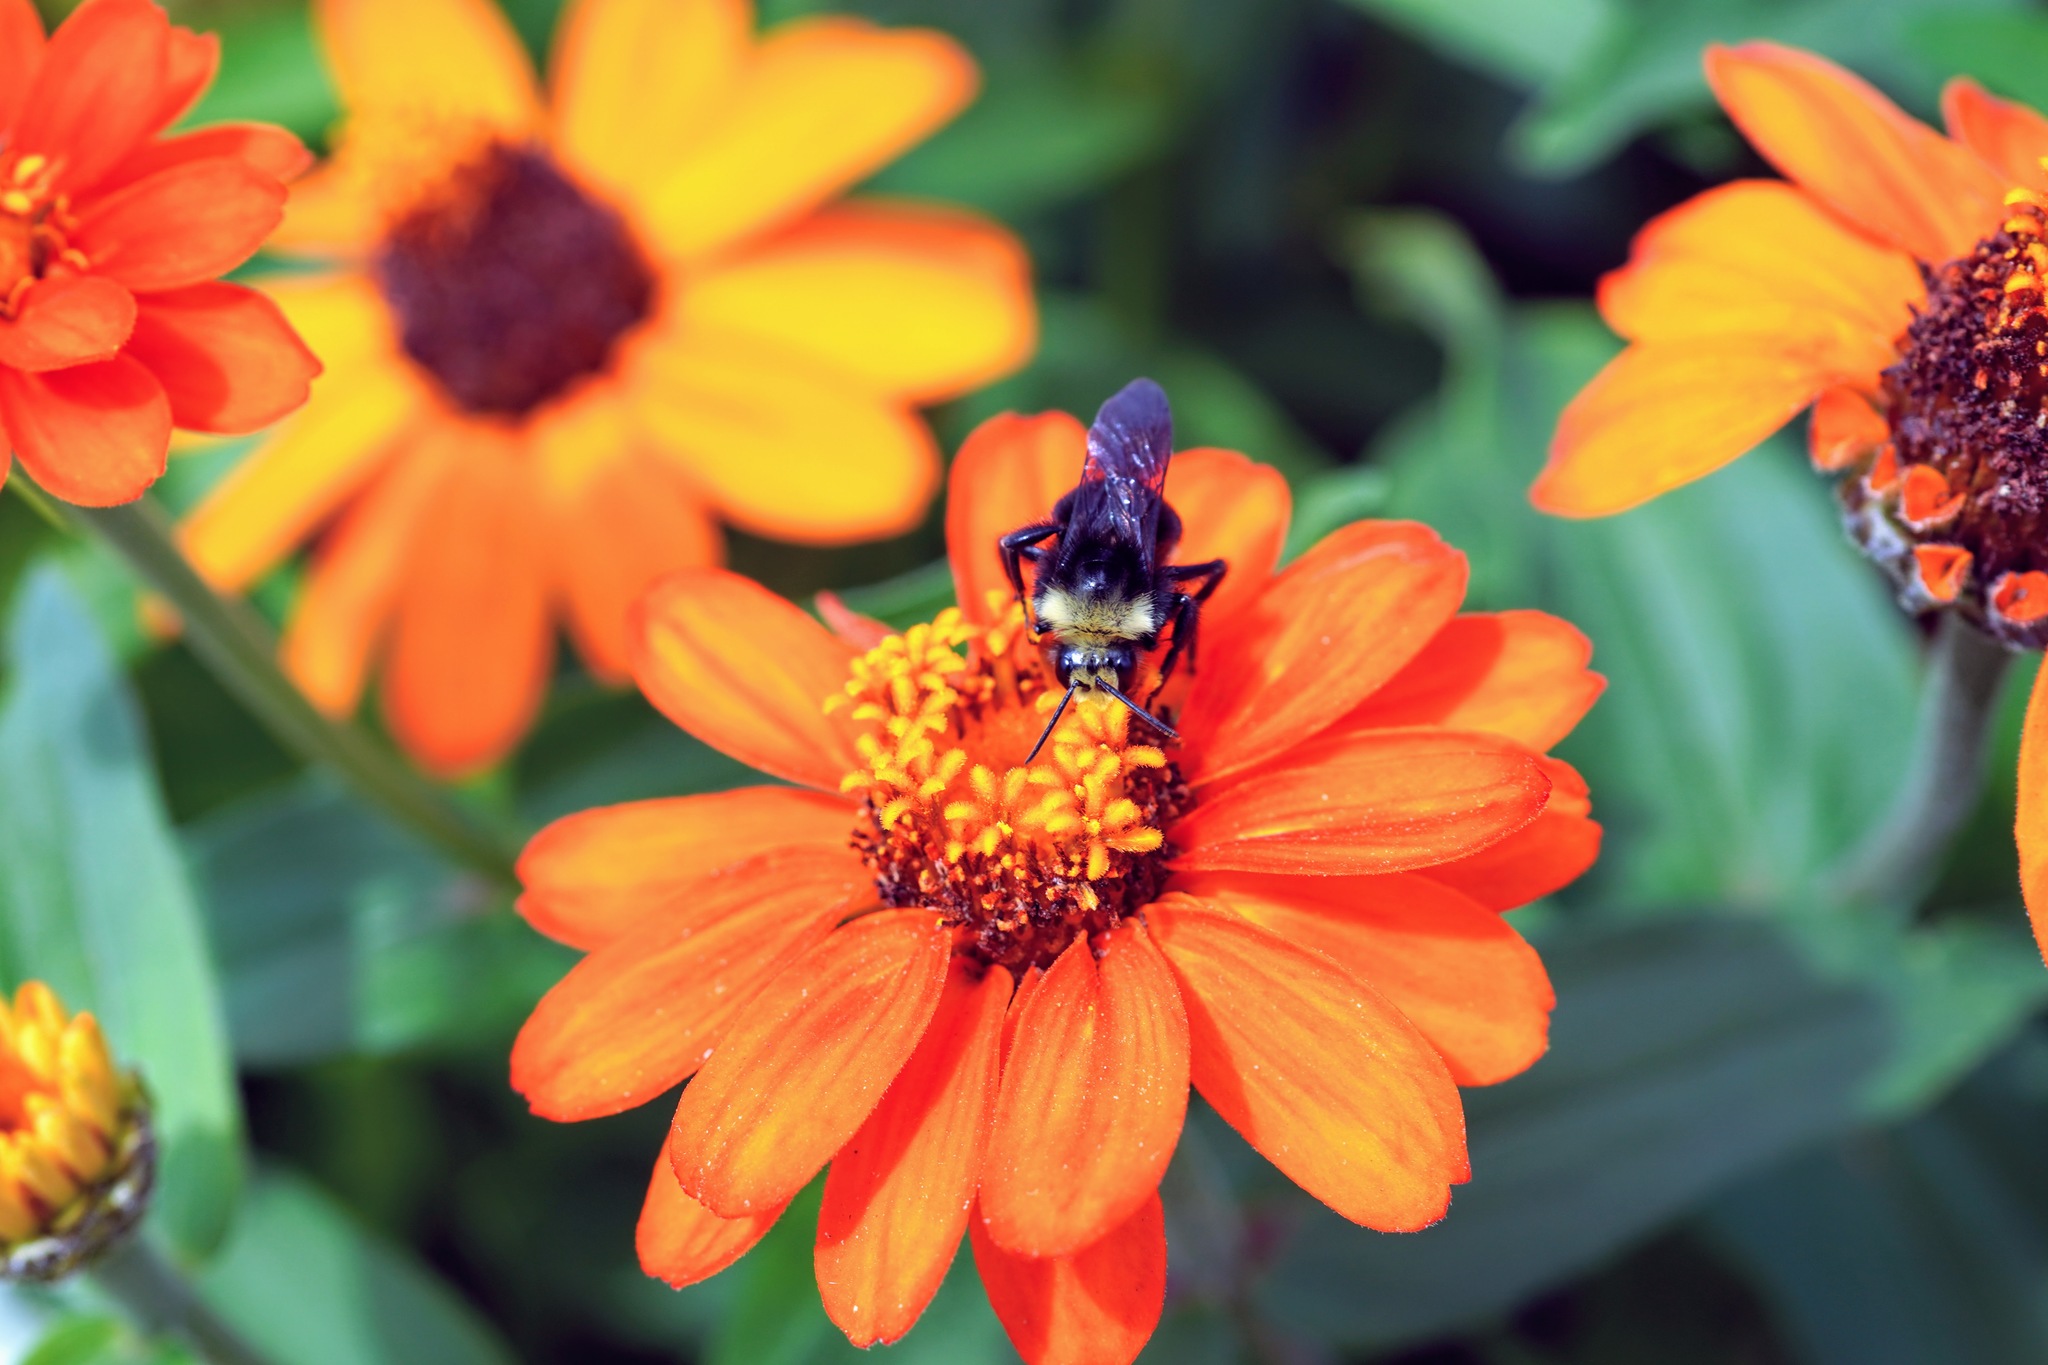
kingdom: Animalia
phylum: Arthropoda
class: Insecta
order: Hymenoptera
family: Apidae
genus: Bombus
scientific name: Bombus vosnesenskii
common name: Vosnesensky bumble bee
